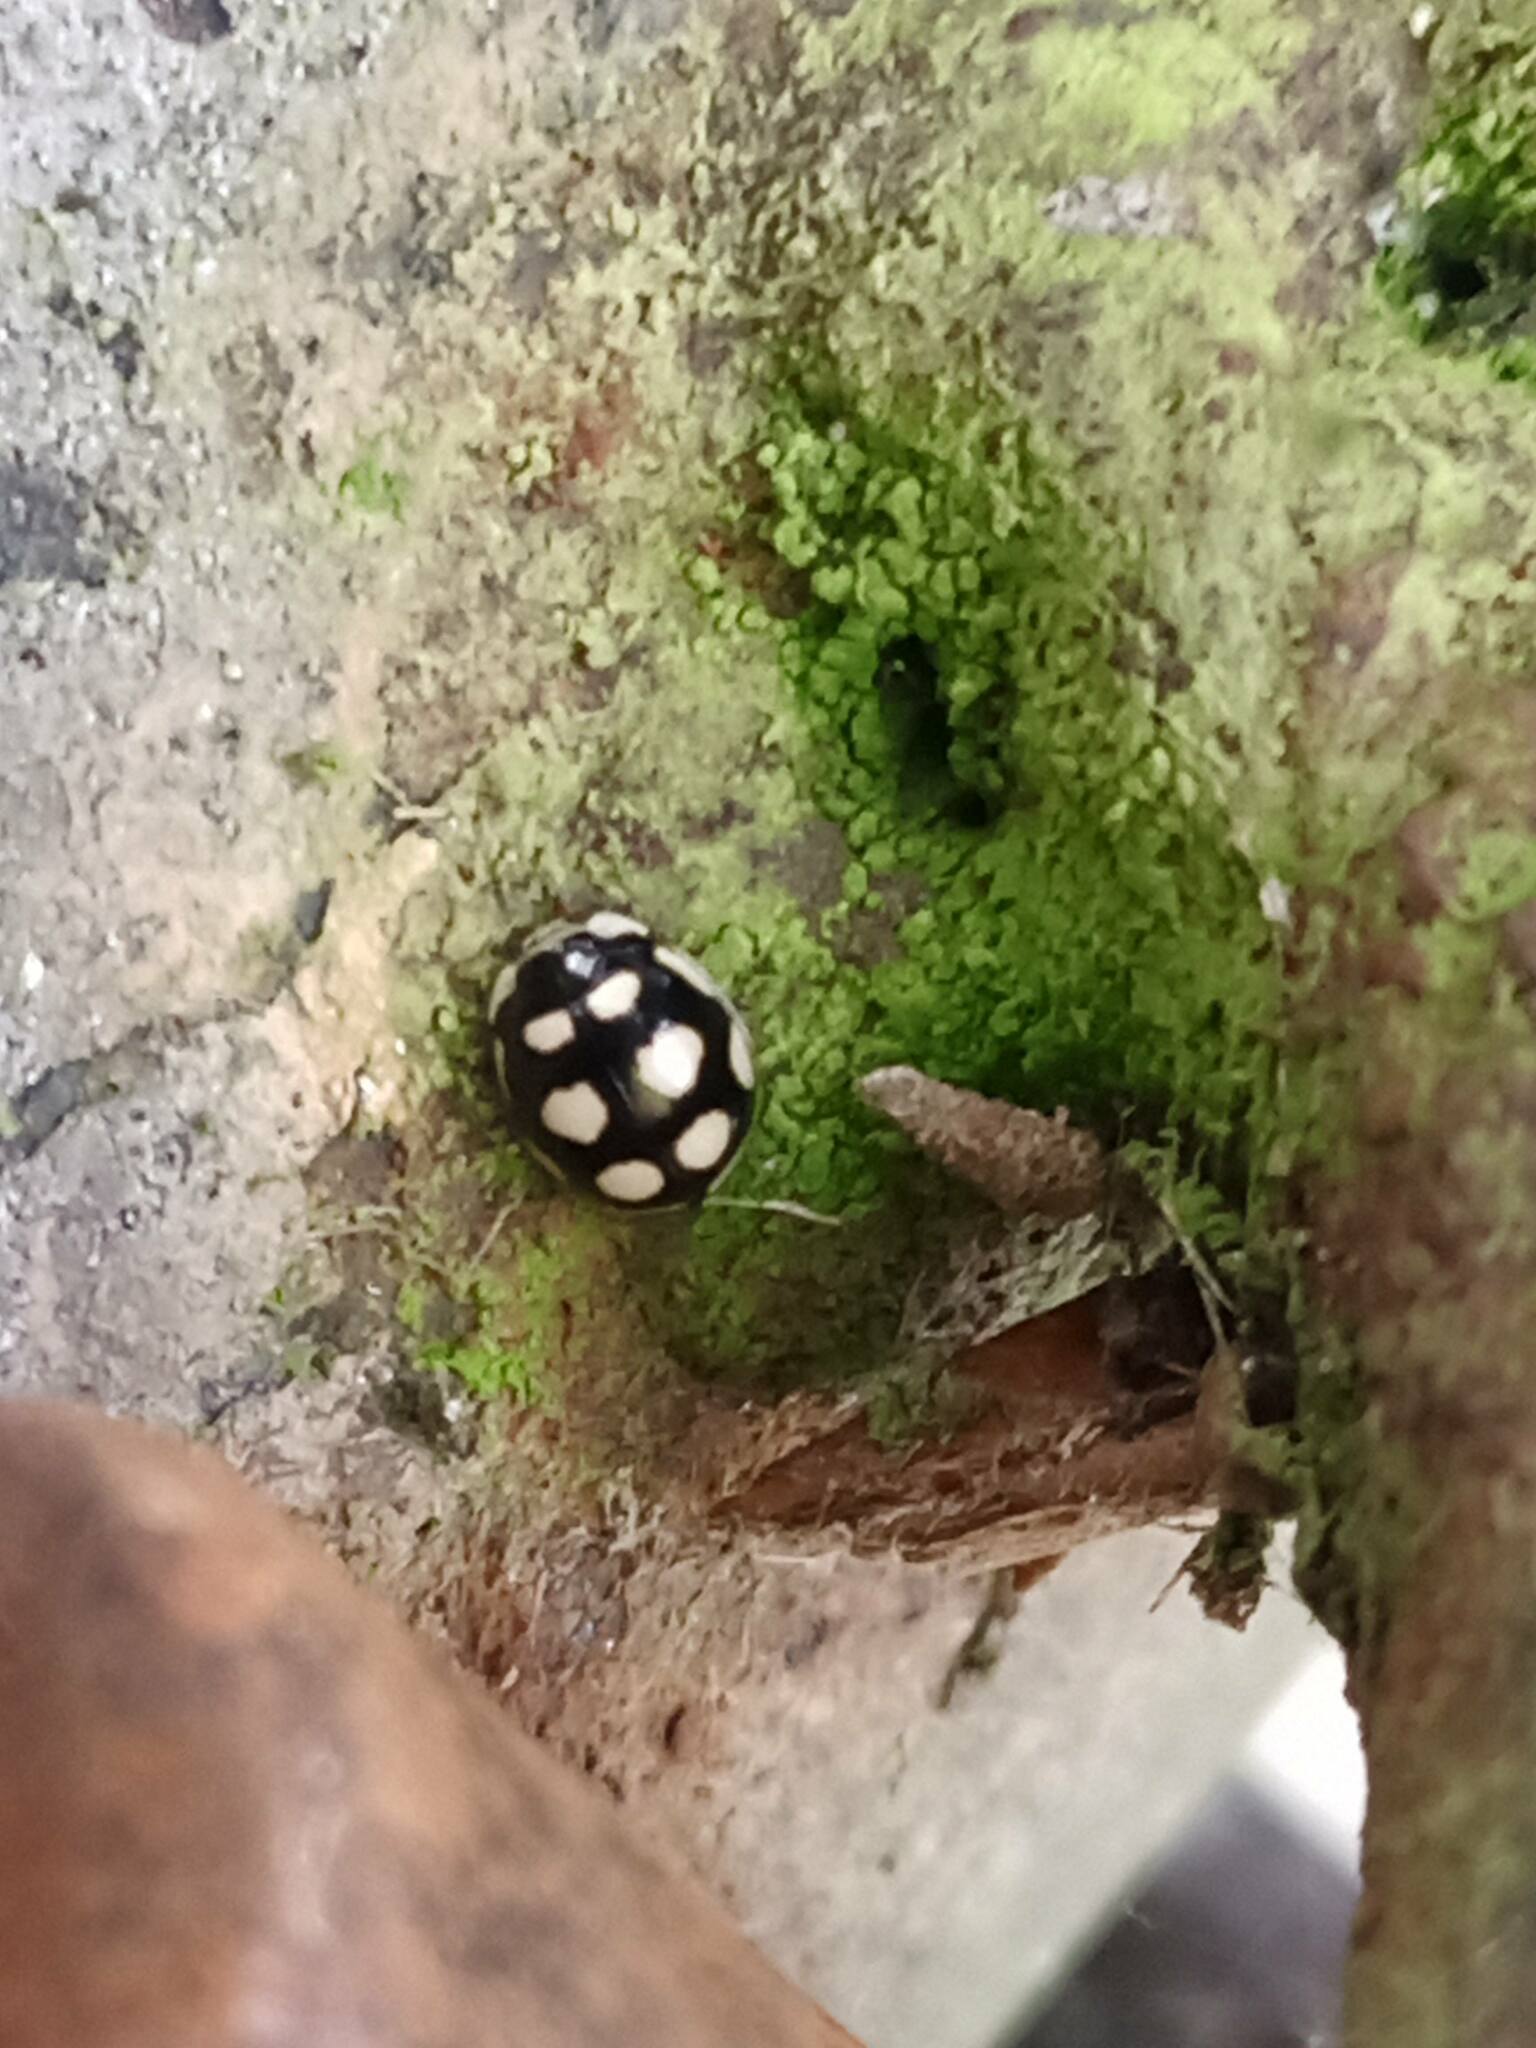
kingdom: Animalia
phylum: Arthropoda
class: Insecta
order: Coleoptera
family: Coccinellidae
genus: Oenopia
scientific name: Oenopia lyncea
